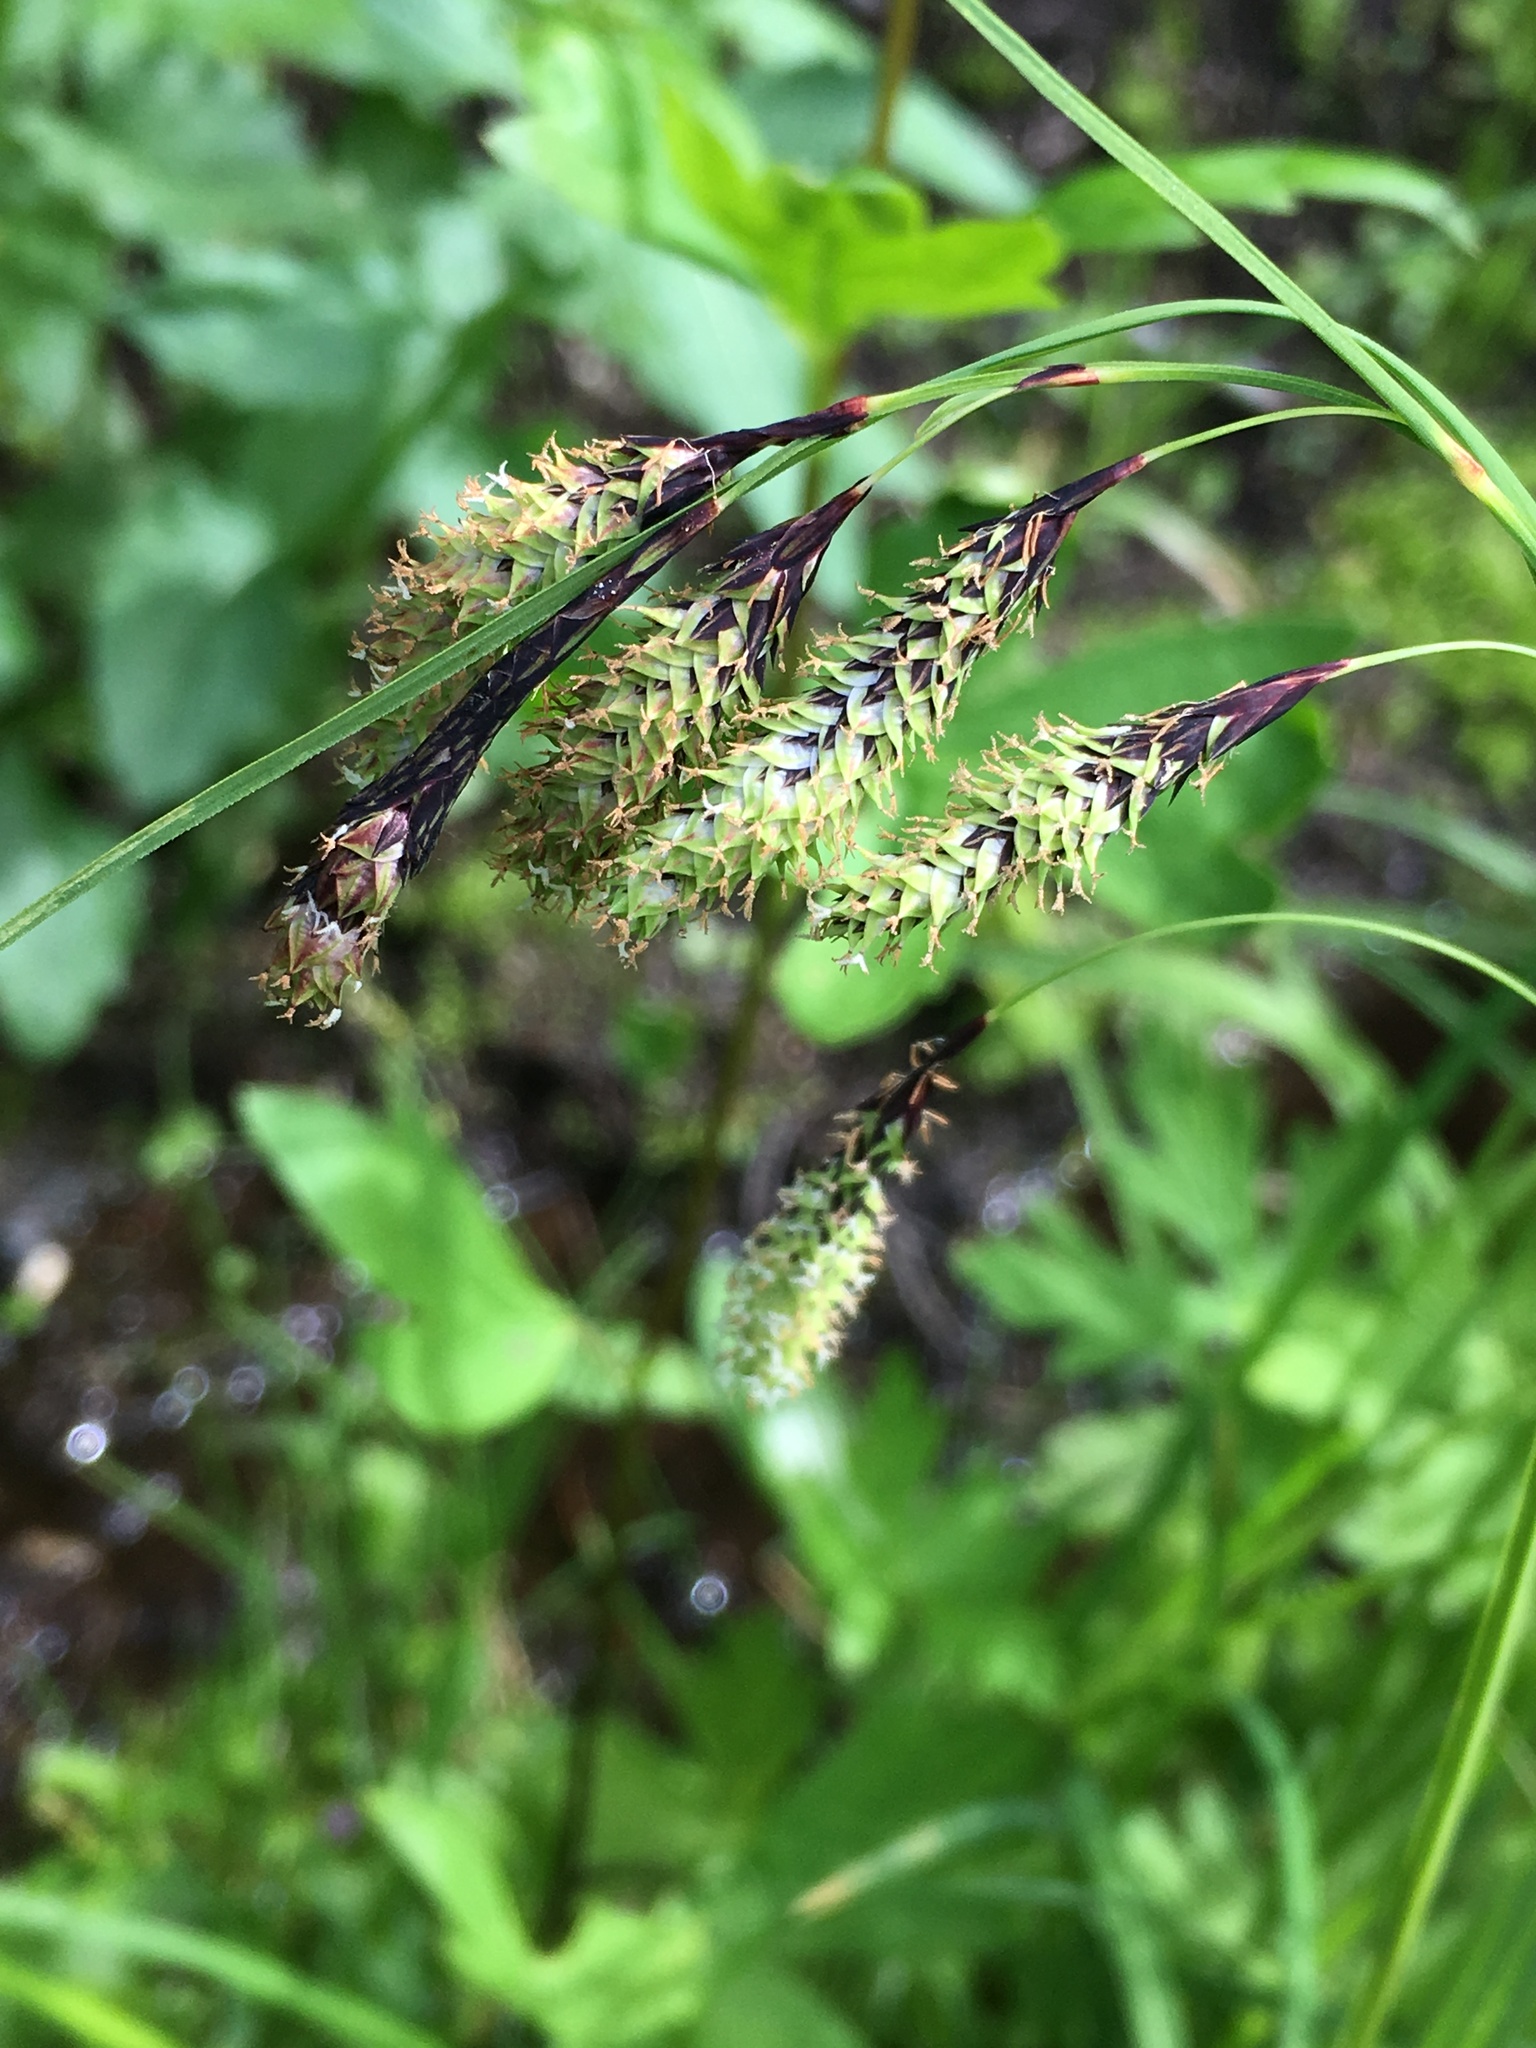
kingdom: Plantae
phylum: Tracheophyta
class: Liliopsida
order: Poales
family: Cyperaceae
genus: Carex
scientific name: Carex mertensii
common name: Mertens' sedge
